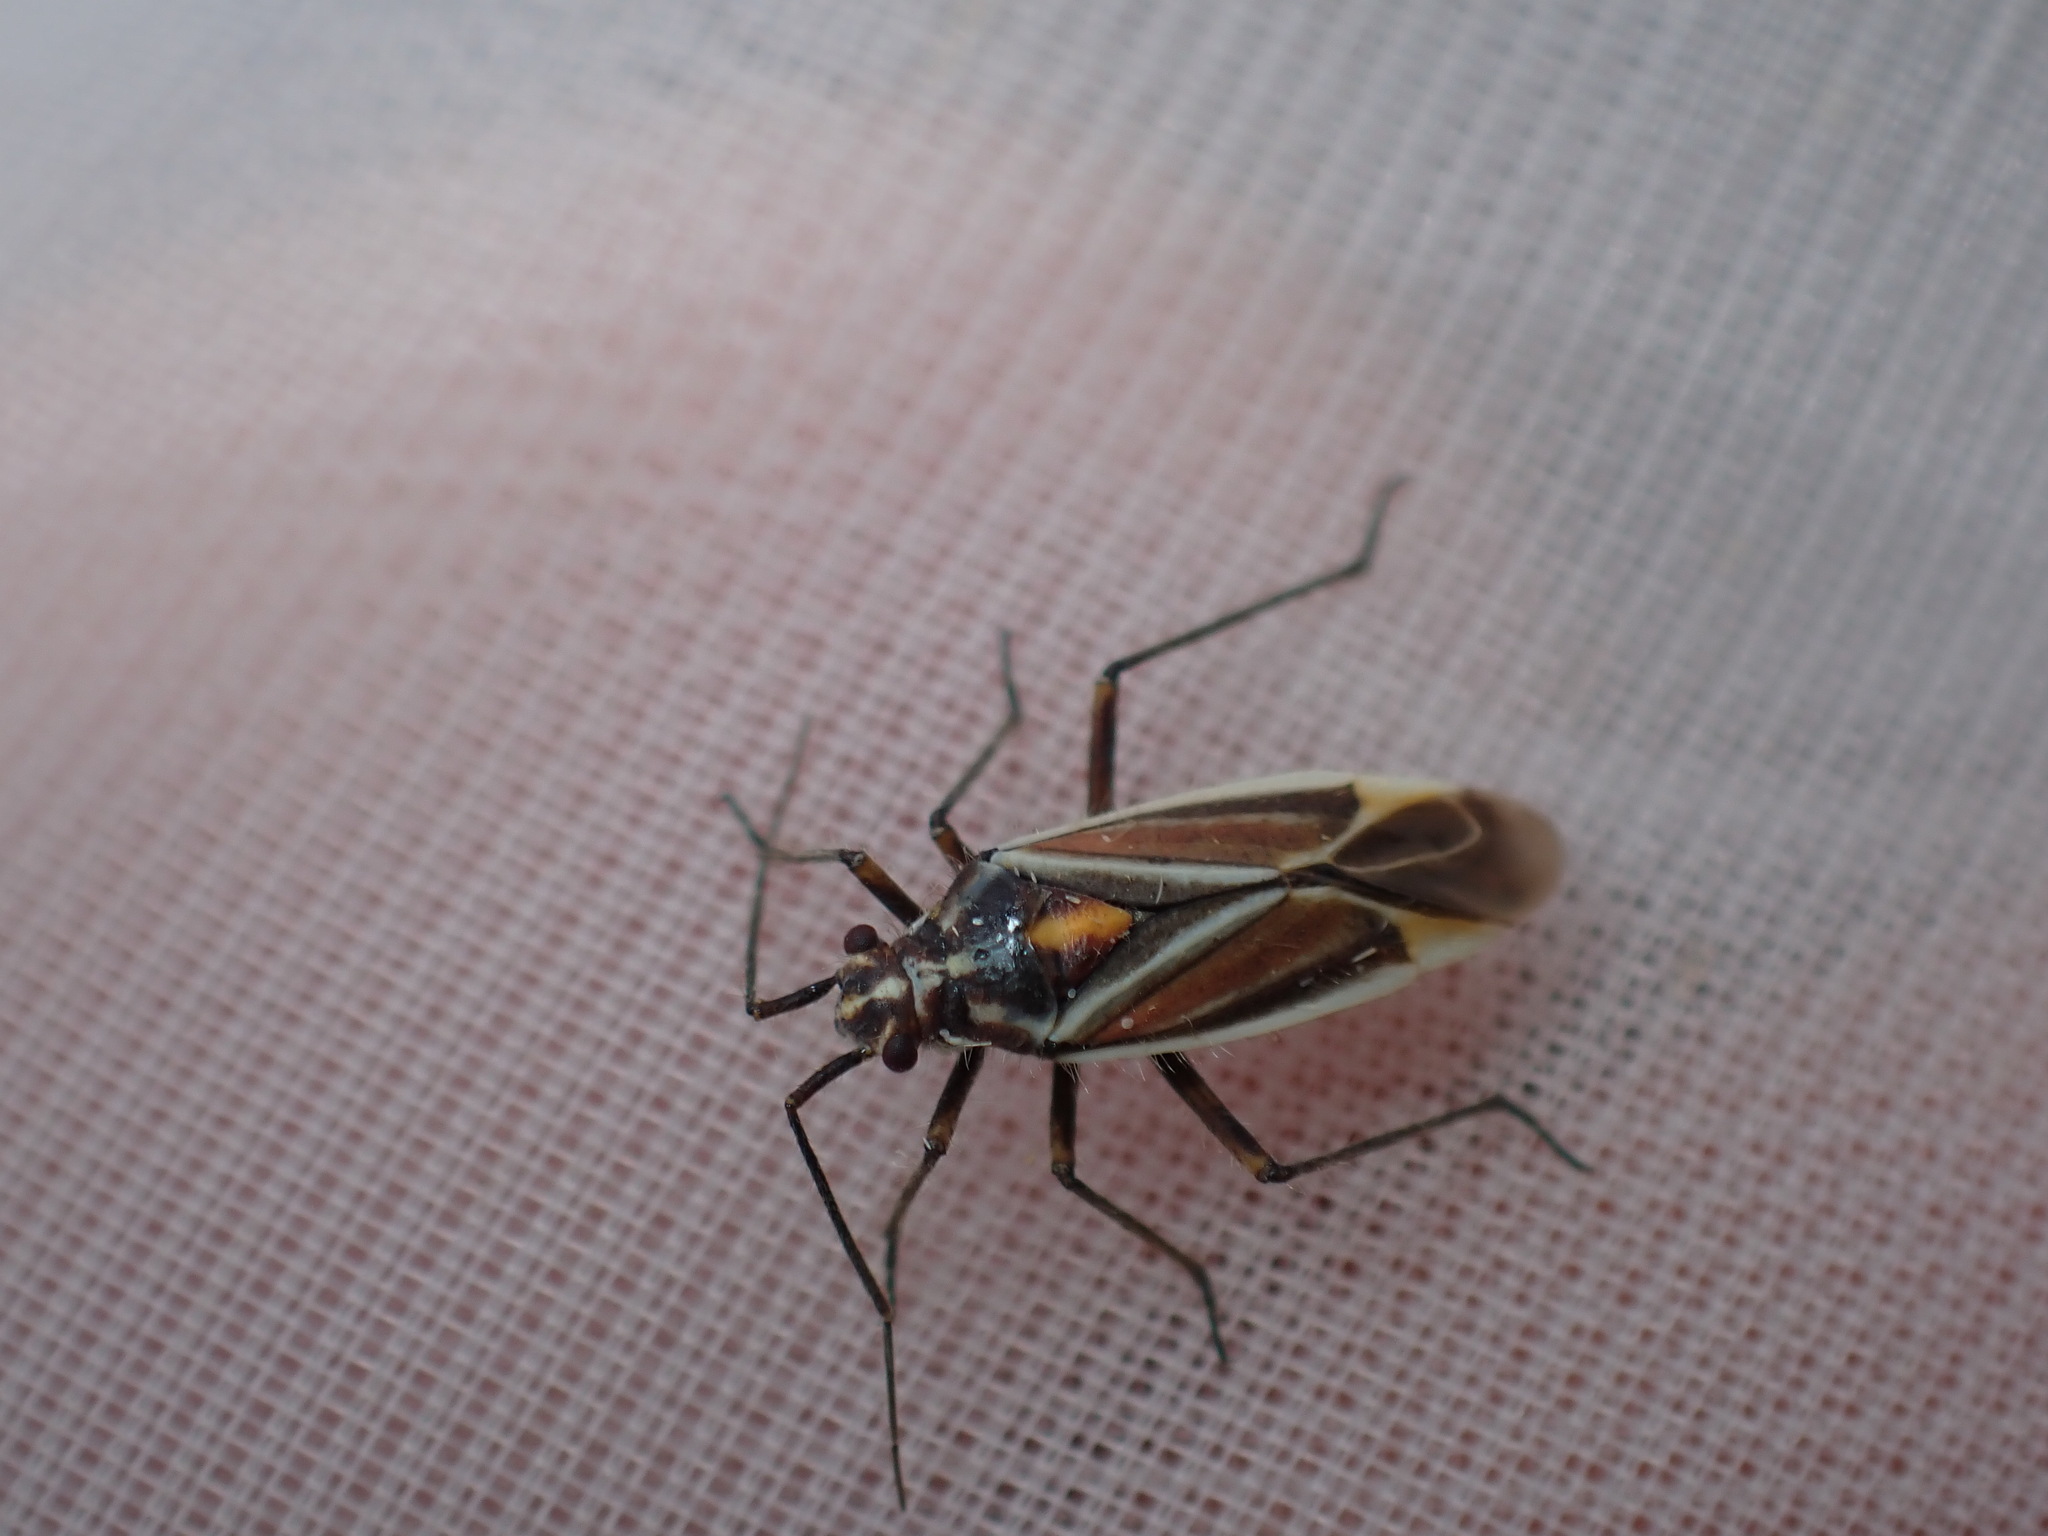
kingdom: Animalia
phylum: Arthropoda
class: Insecta
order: Hemiptera
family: Miridae
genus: Horistus
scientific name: Horistus orientalis
